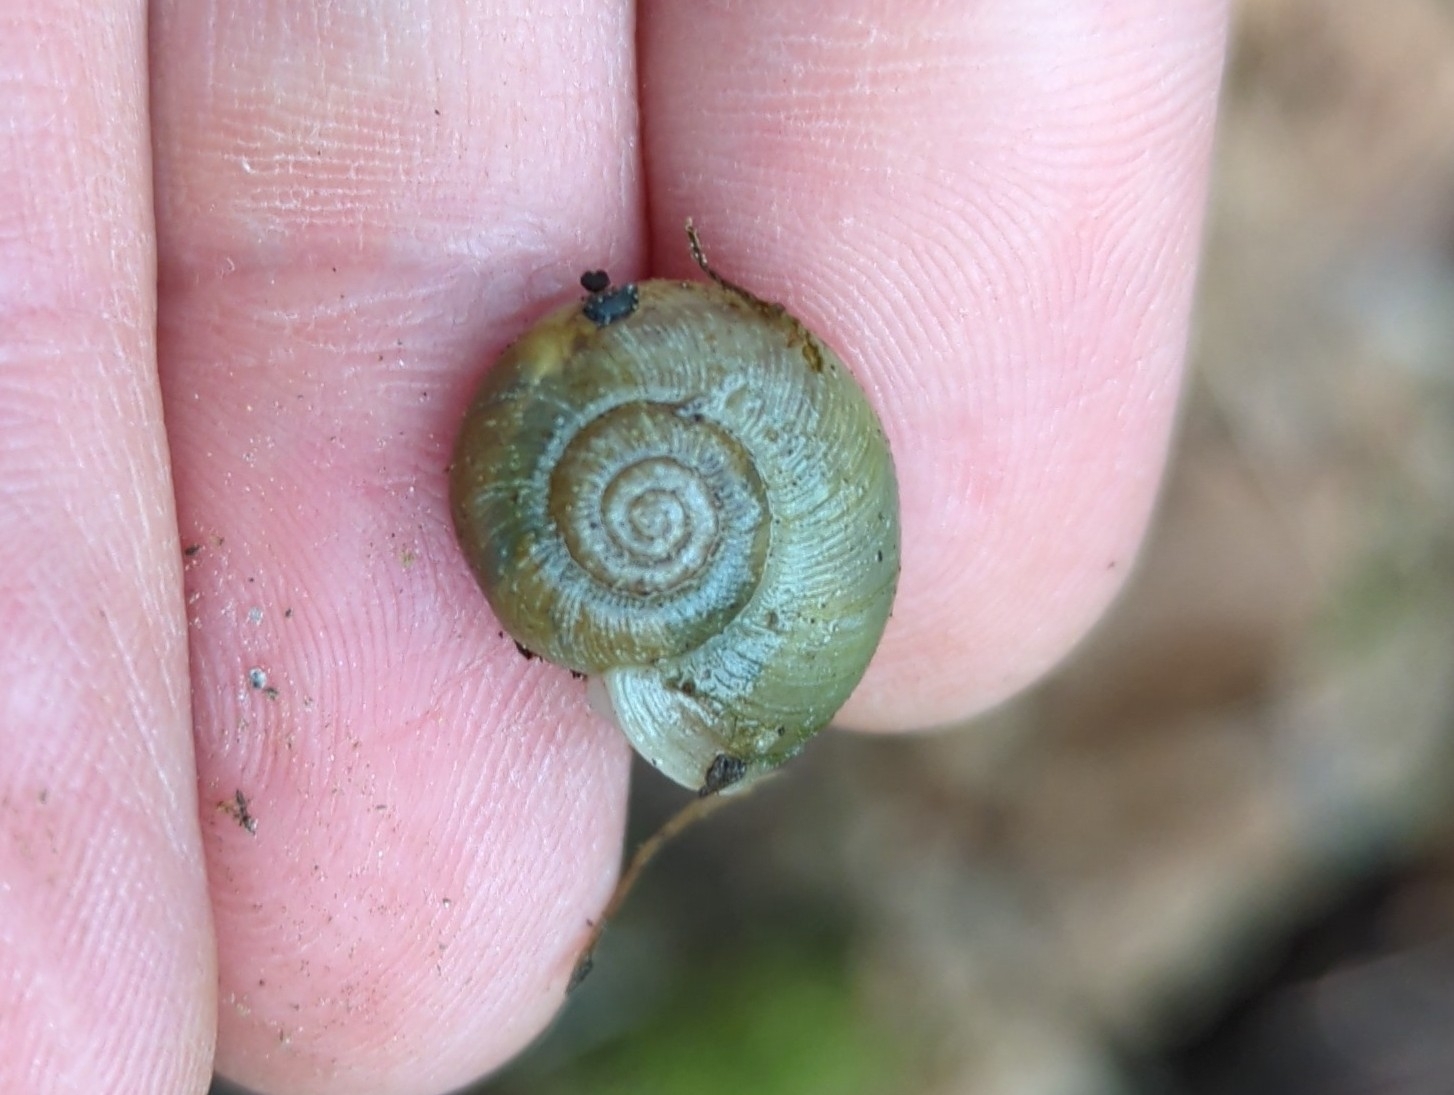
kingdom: Animalia
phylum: Mollusca
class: Gastropoda
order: Stylommatophora
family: Haplotrematidae
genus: Ancotrema
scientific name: Ancotrema sportella
